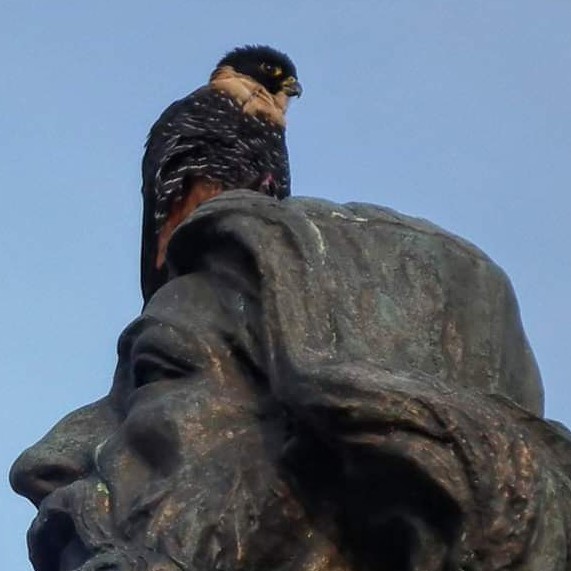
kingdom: Animalia
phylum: Chordata
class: Aves
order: Falconiformes
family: Falconidae
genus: Falco
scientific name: Falco rufigularis
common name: Bat falcon
